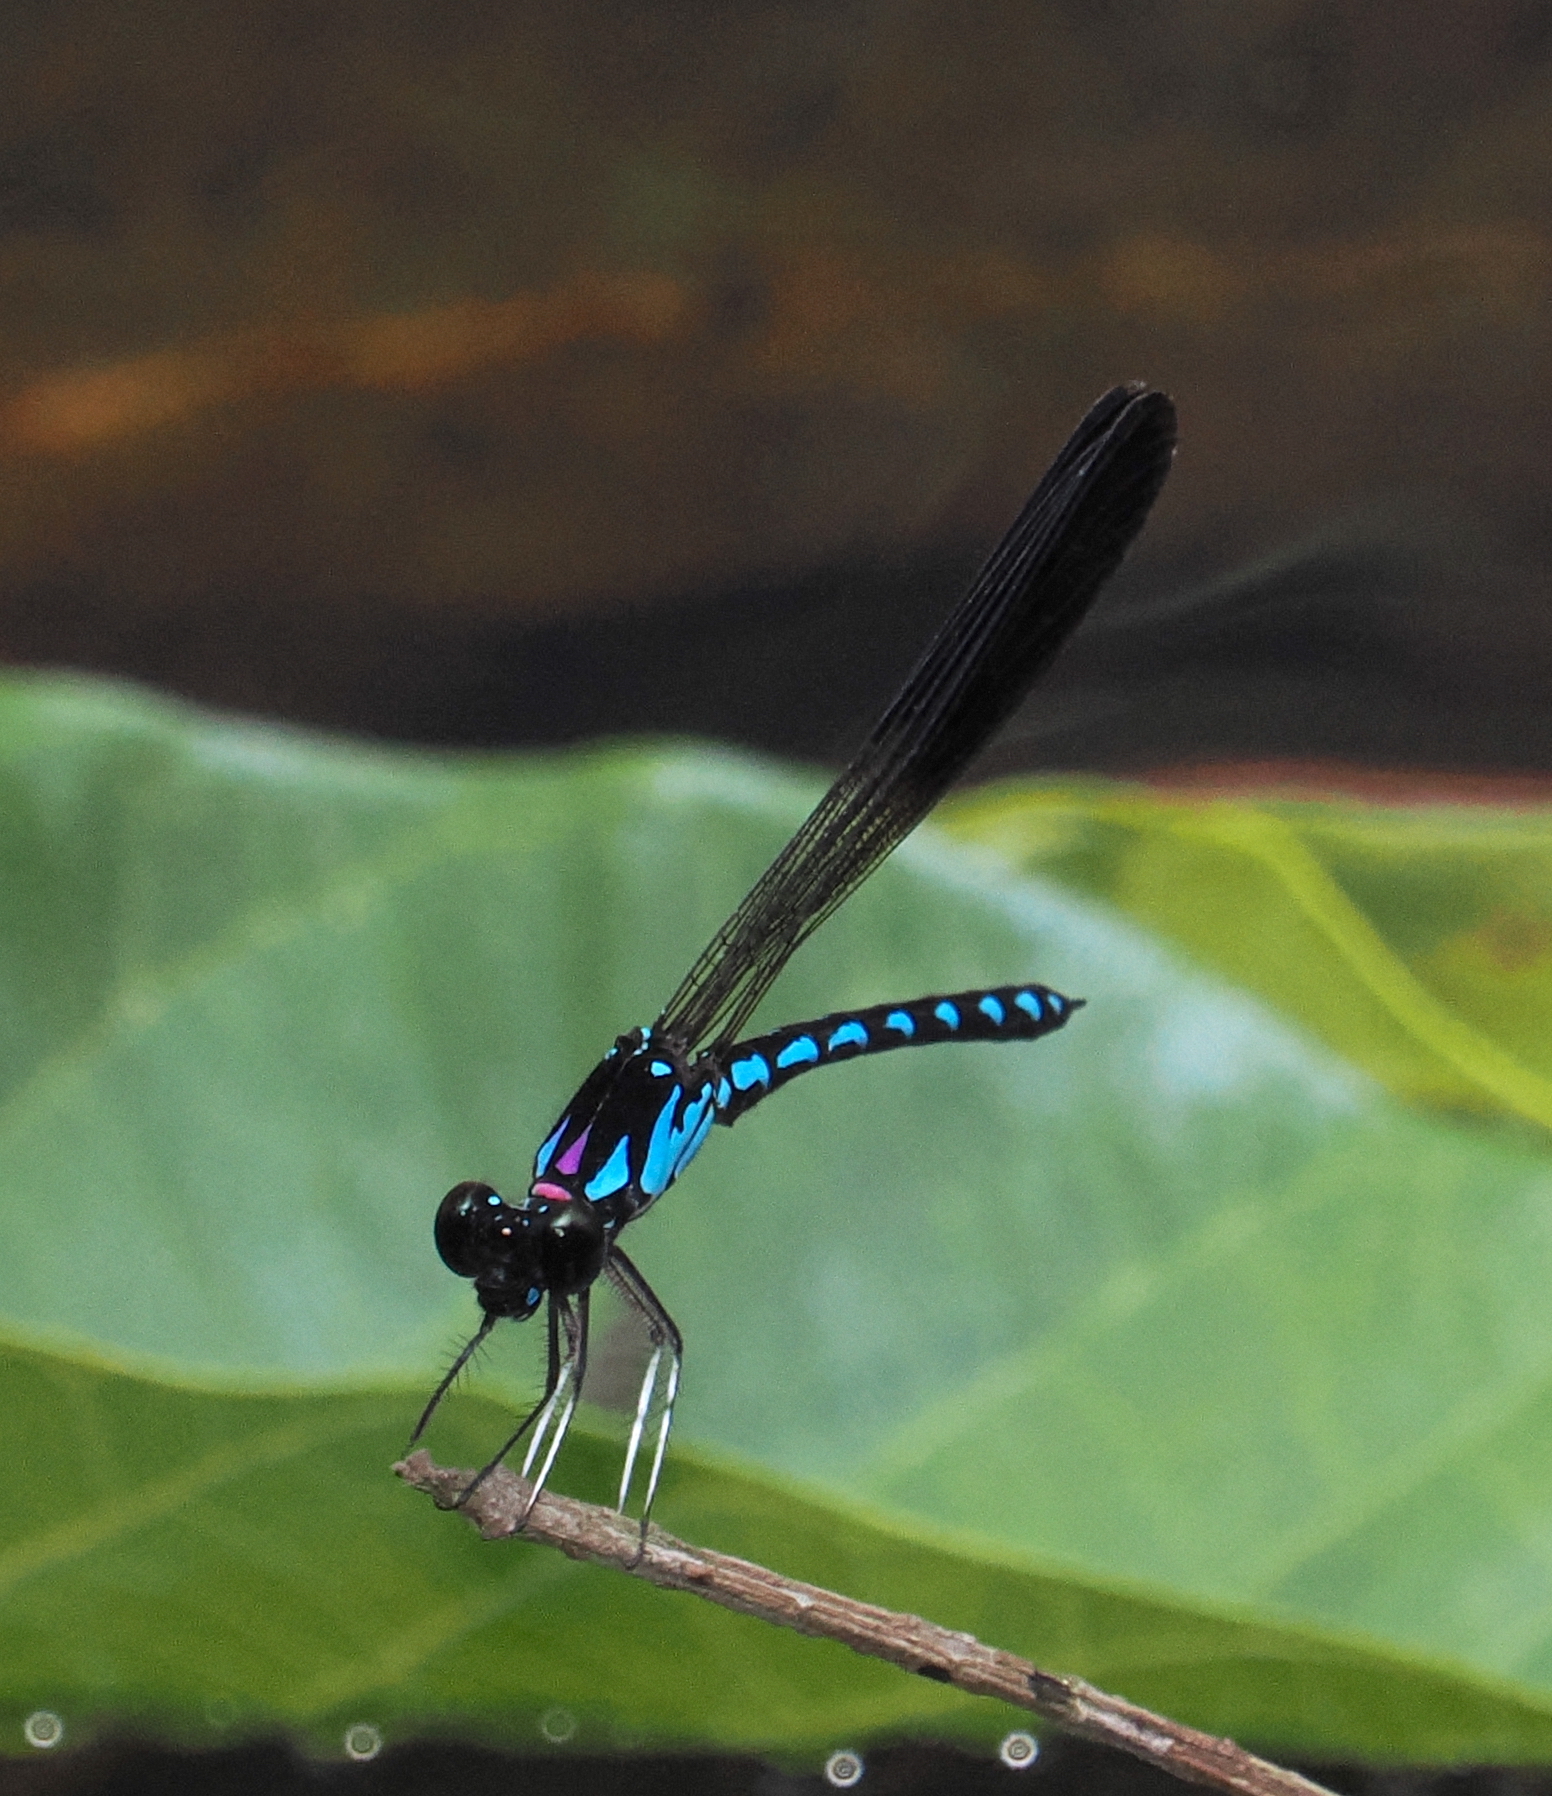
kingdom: Animalia
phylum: Arthropoda
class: Insecta
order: Odonata
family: Chlorocyphidae
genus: Heliocypha
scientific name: Heliocypha perforata
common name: Common blue jewel
